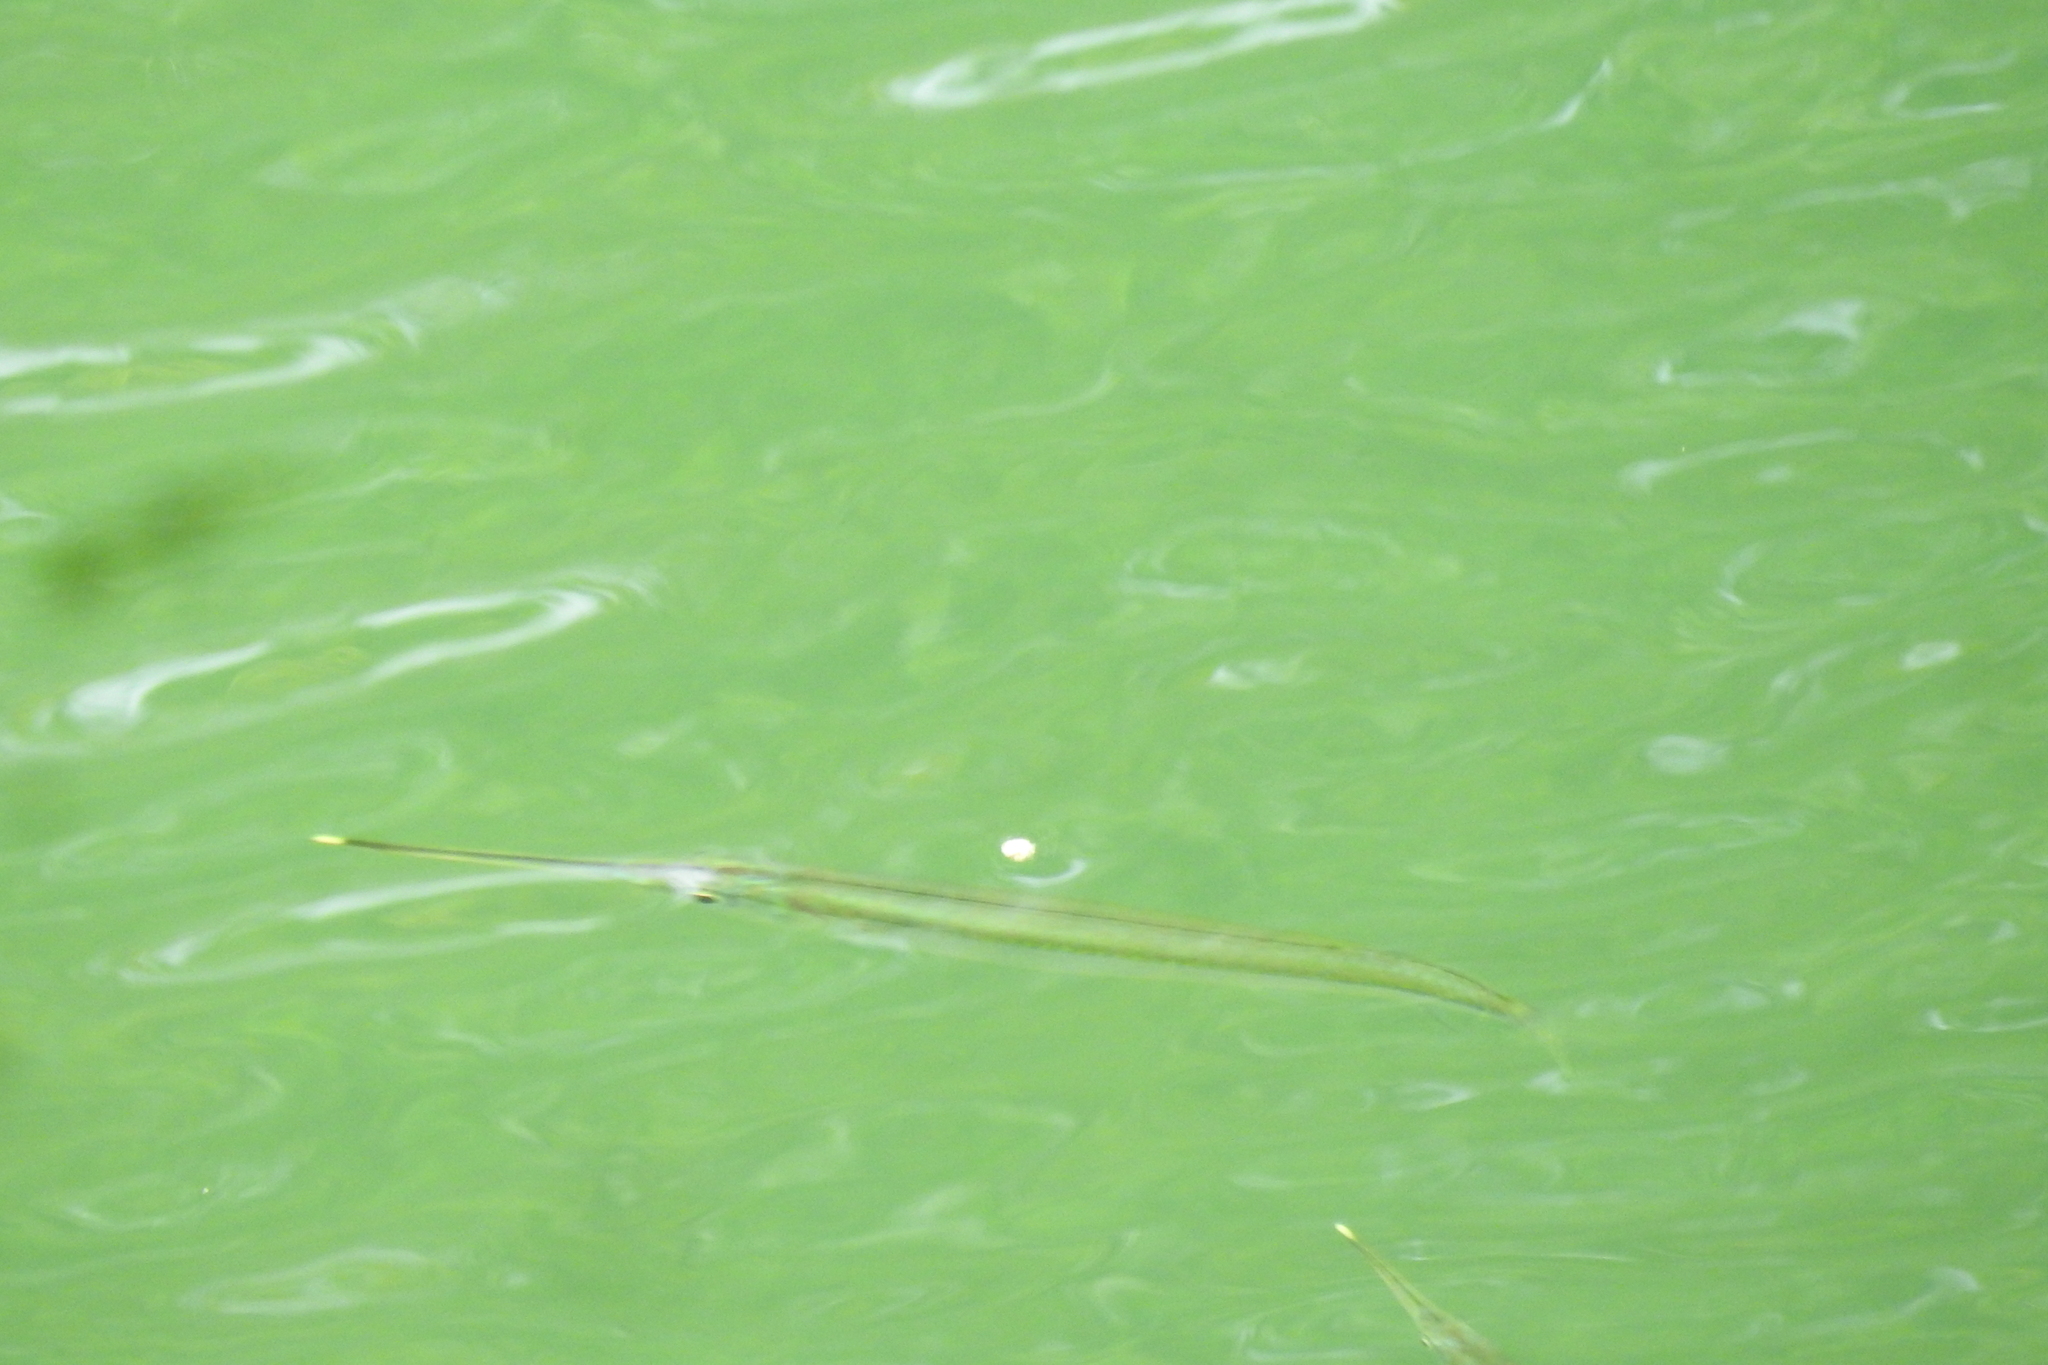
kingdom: Animalia
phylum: Chordata
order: Beloniformes
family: Zenarchopteridae
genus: Zenarchopterus
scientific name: Zenarchopterus buffonis
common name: Buffon's river-garfish
